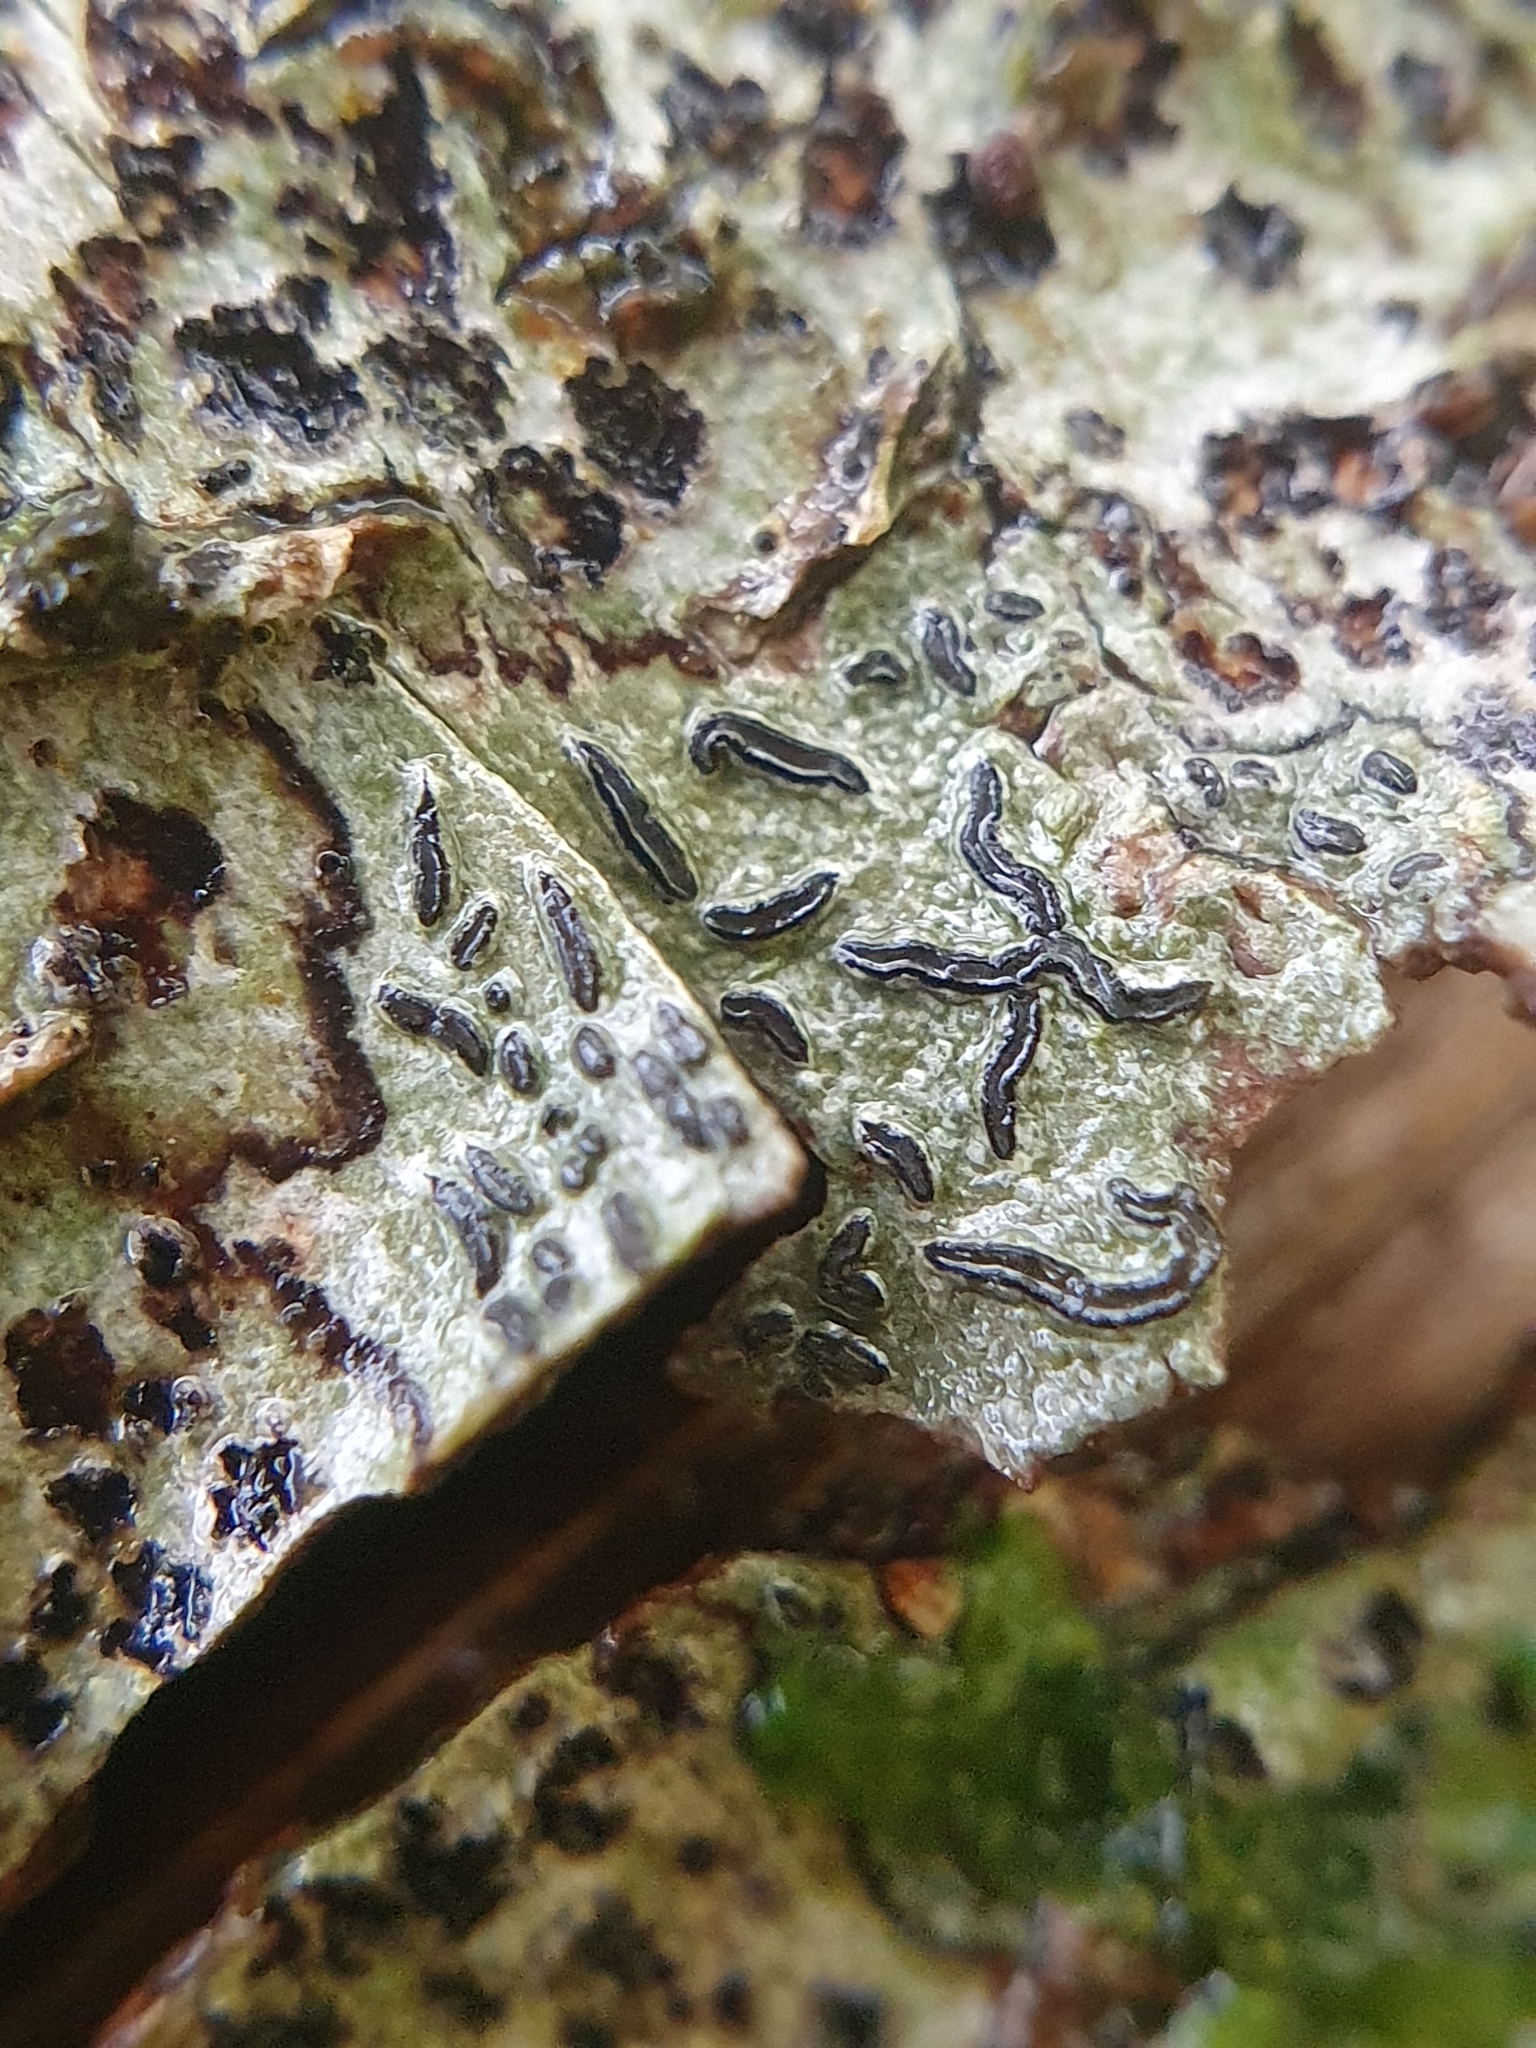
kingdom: Fungi
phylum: Ascomycota
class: Lecanoromycetes
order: Ostropales
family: Graphidaceae
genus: Graphis
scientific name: Graphis scripta
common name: Script lichen
